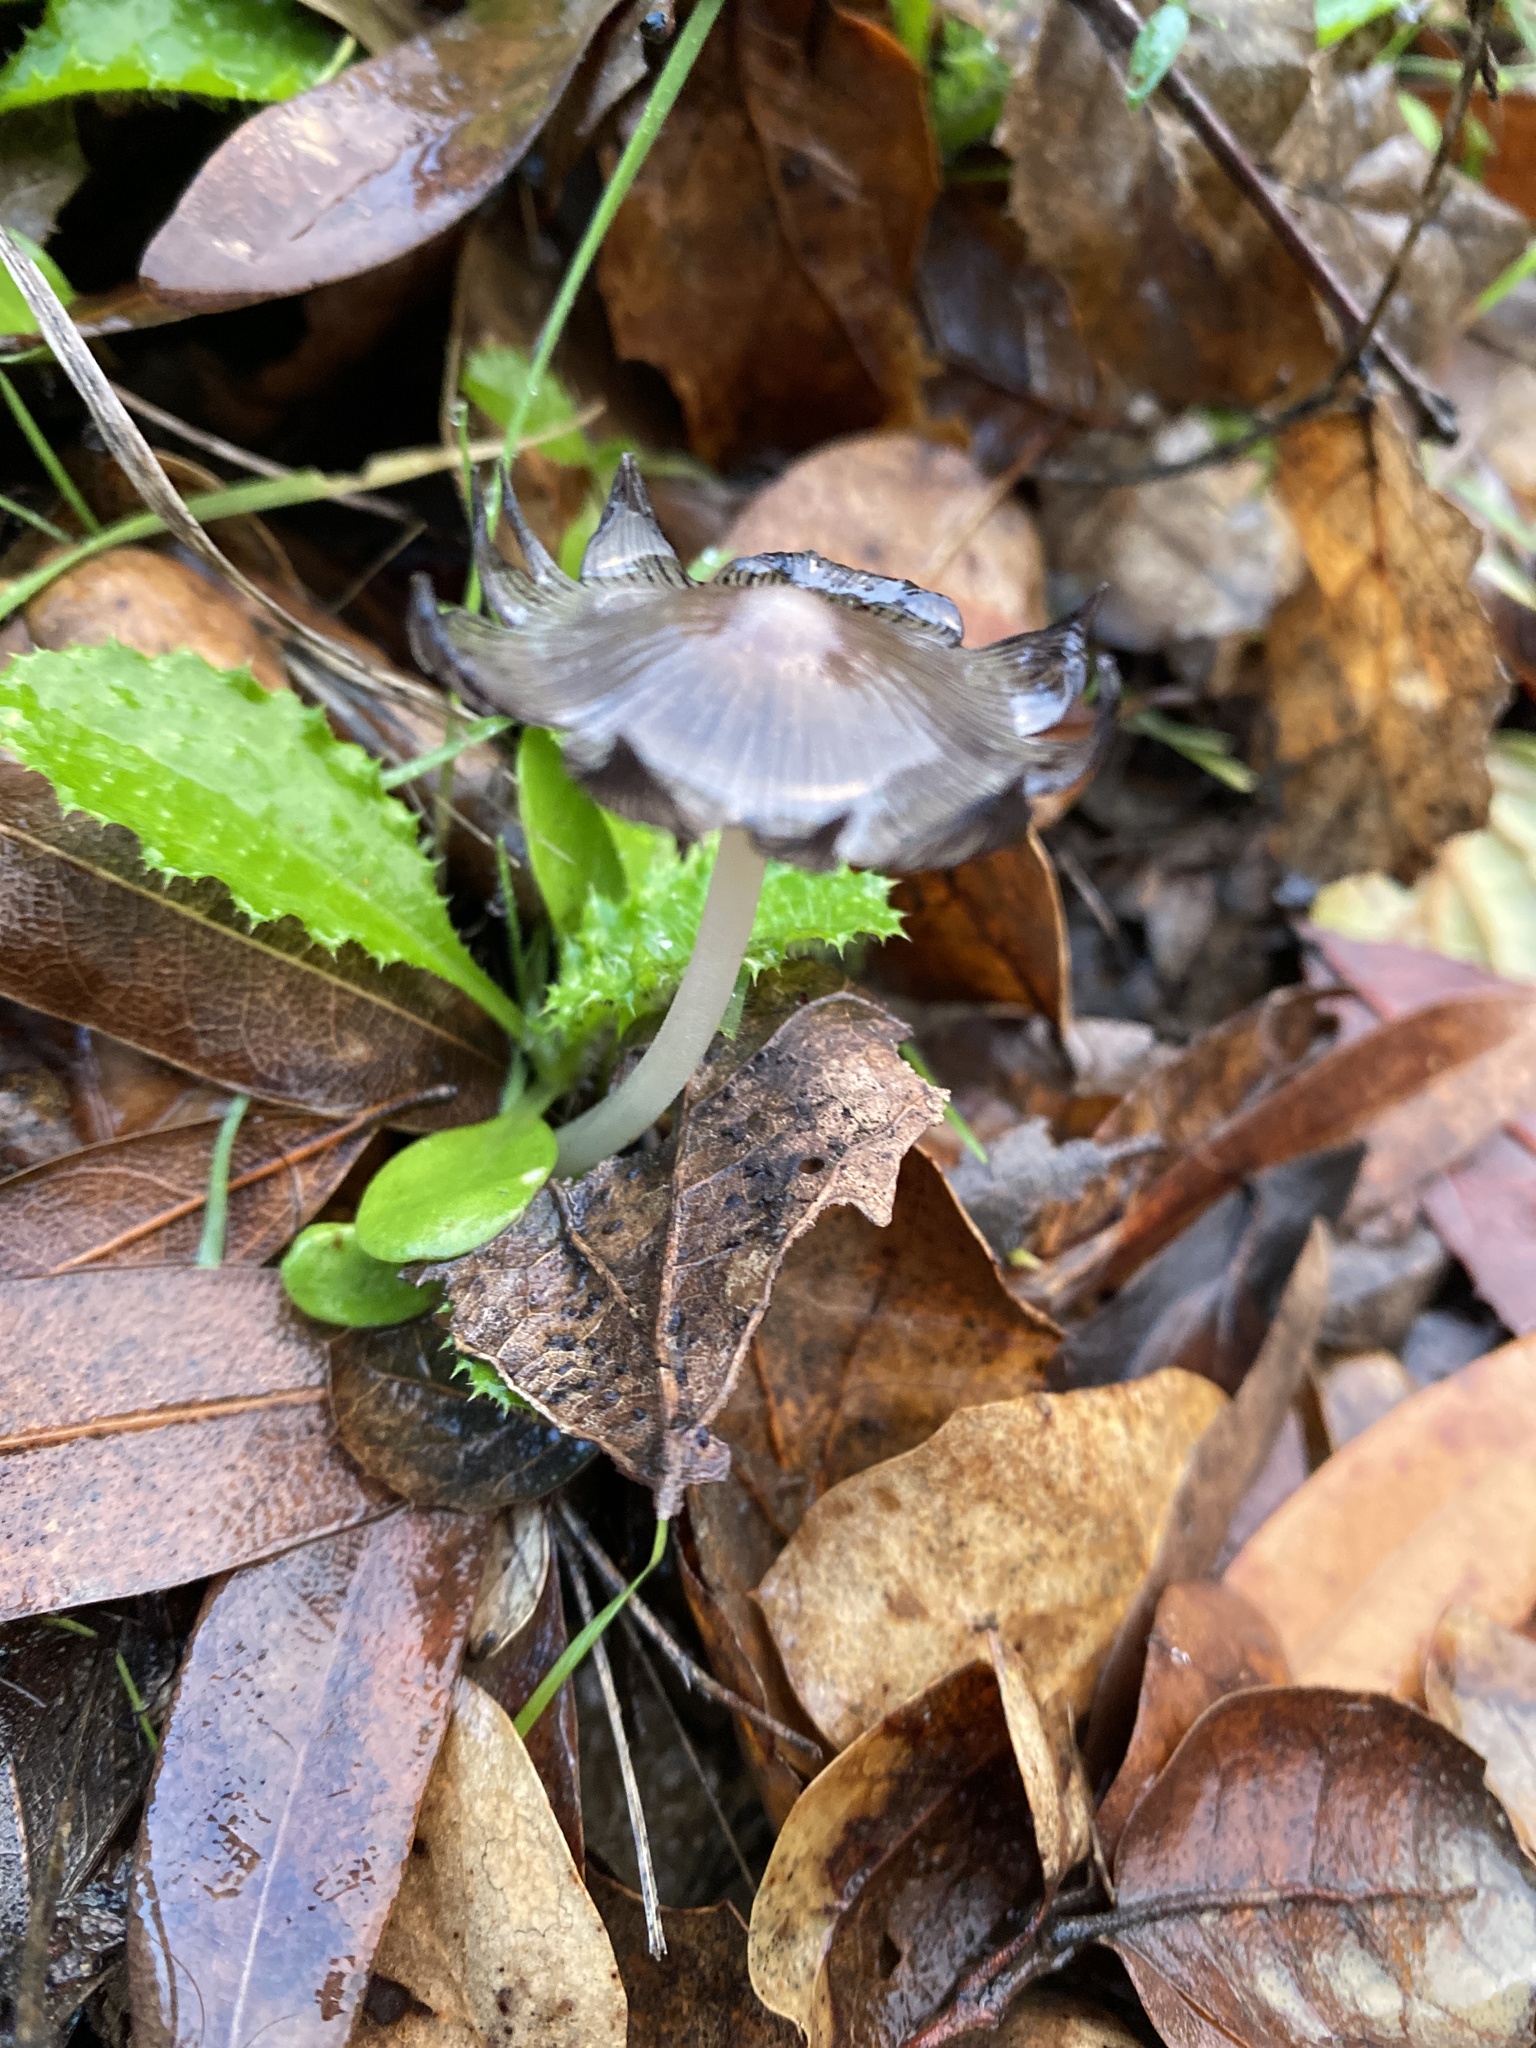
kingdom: Fungi
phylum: Basidiomycota
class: Agaricomycetes
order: Agaricales
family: Psathyrellaceae
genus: Psathyrella
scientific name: Psathyrella longipes
